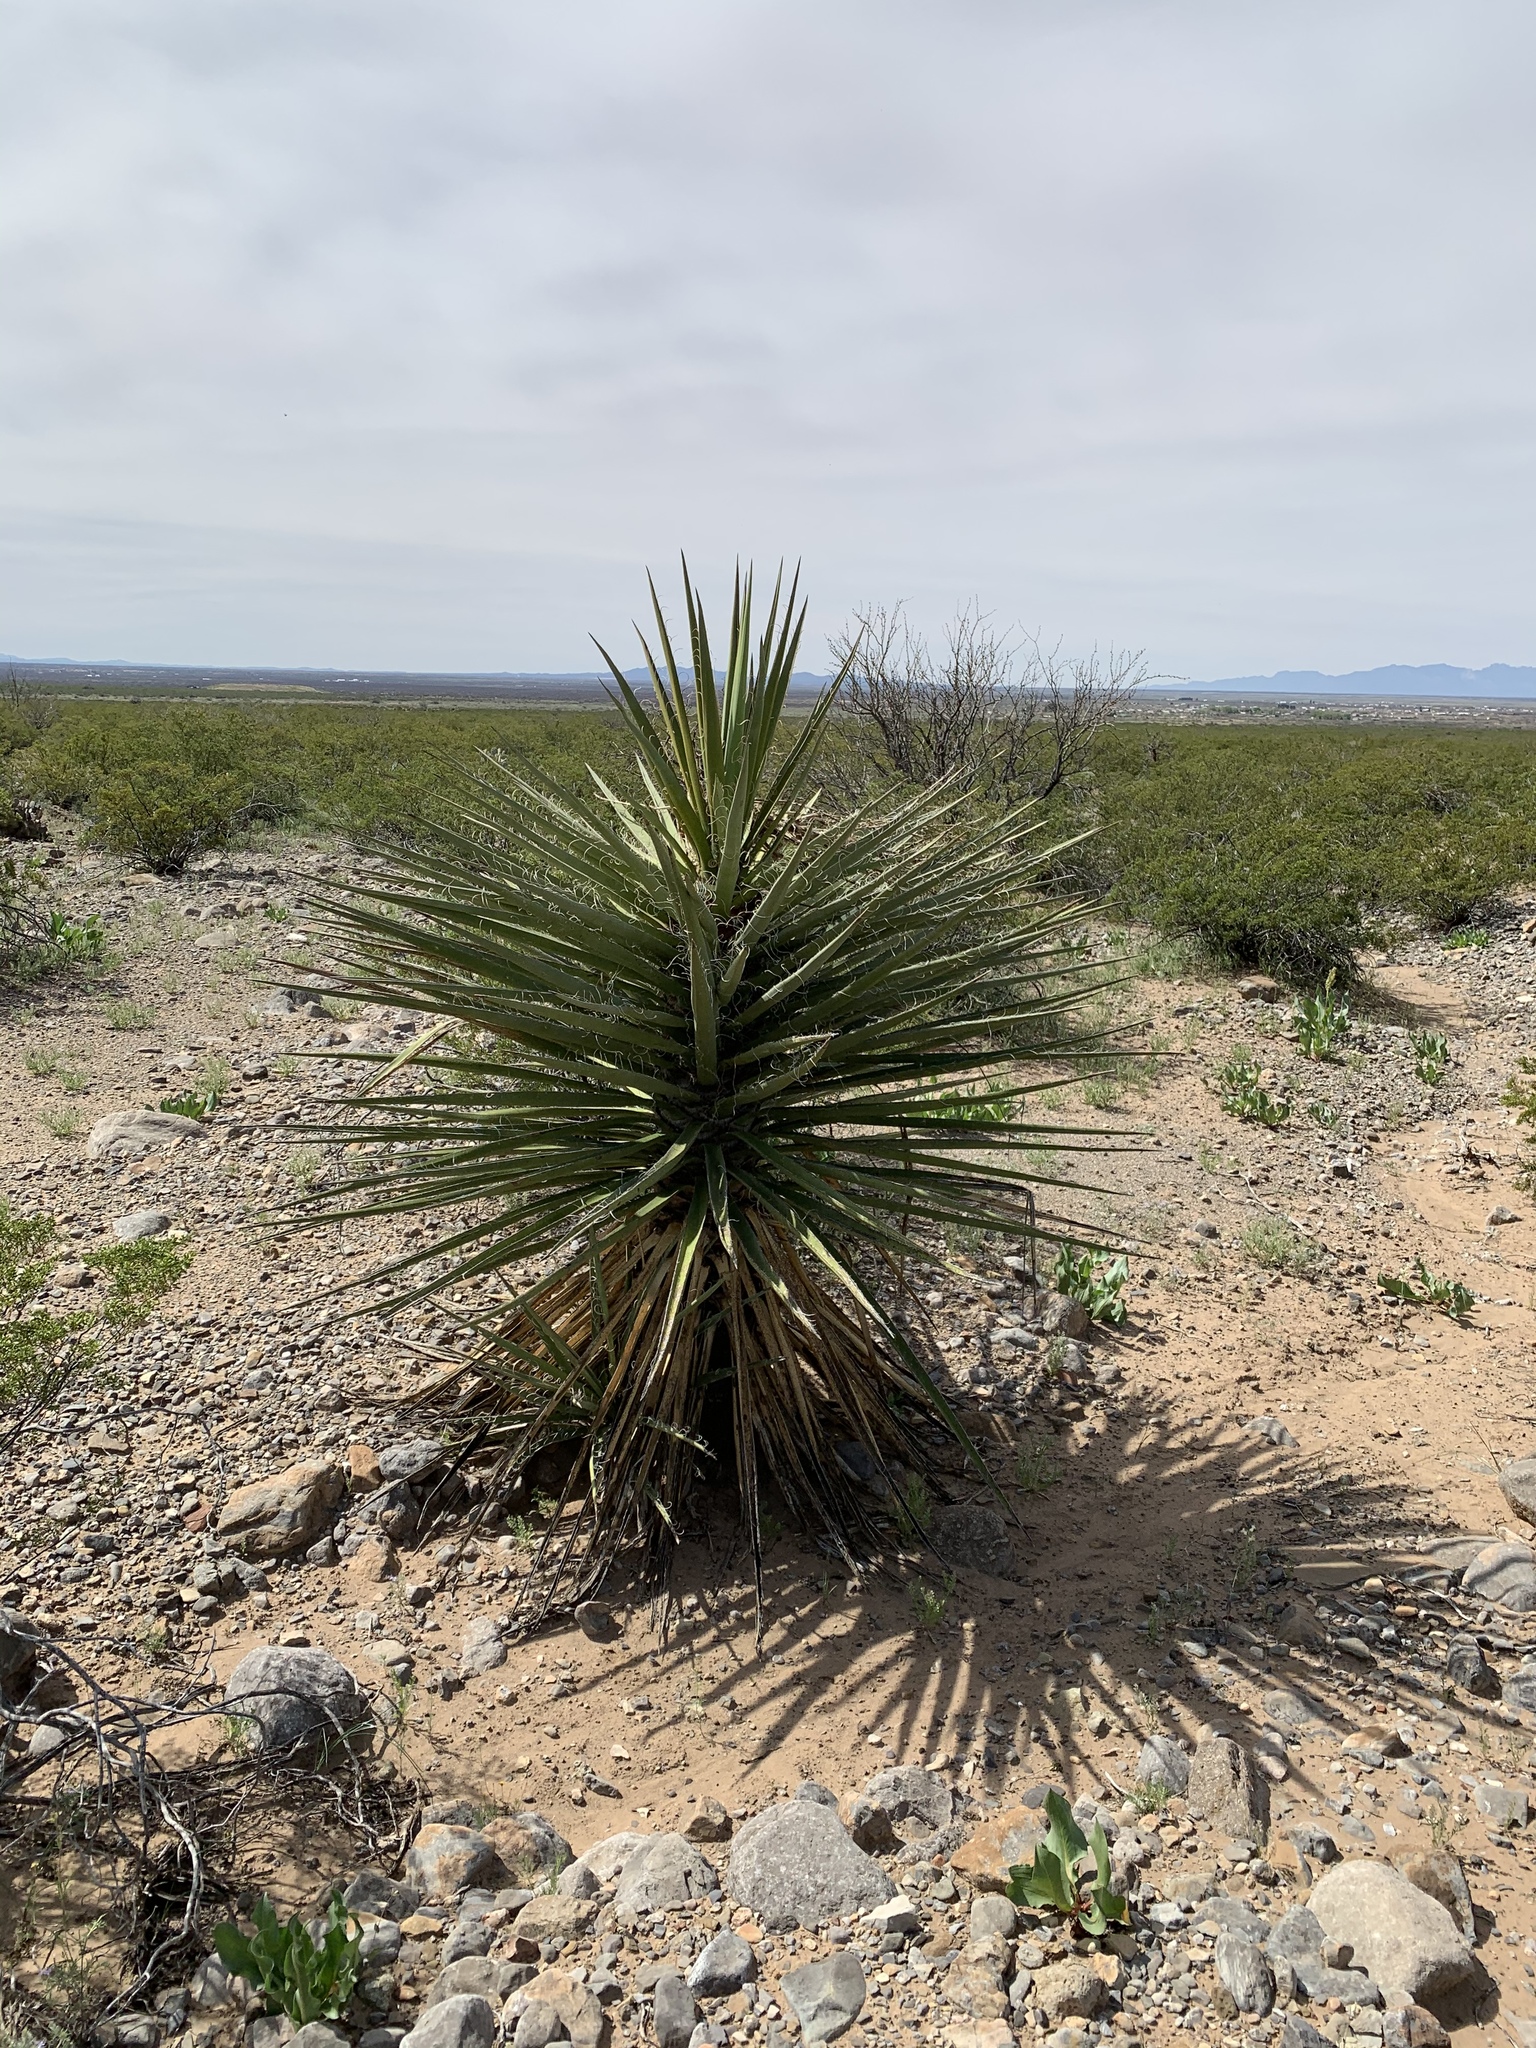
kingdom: Plantae
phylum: Tracheophyta
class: Liliopsida
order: Asparagales
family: Asparagaceae
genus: Yucca
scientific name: Yucca treculiana
